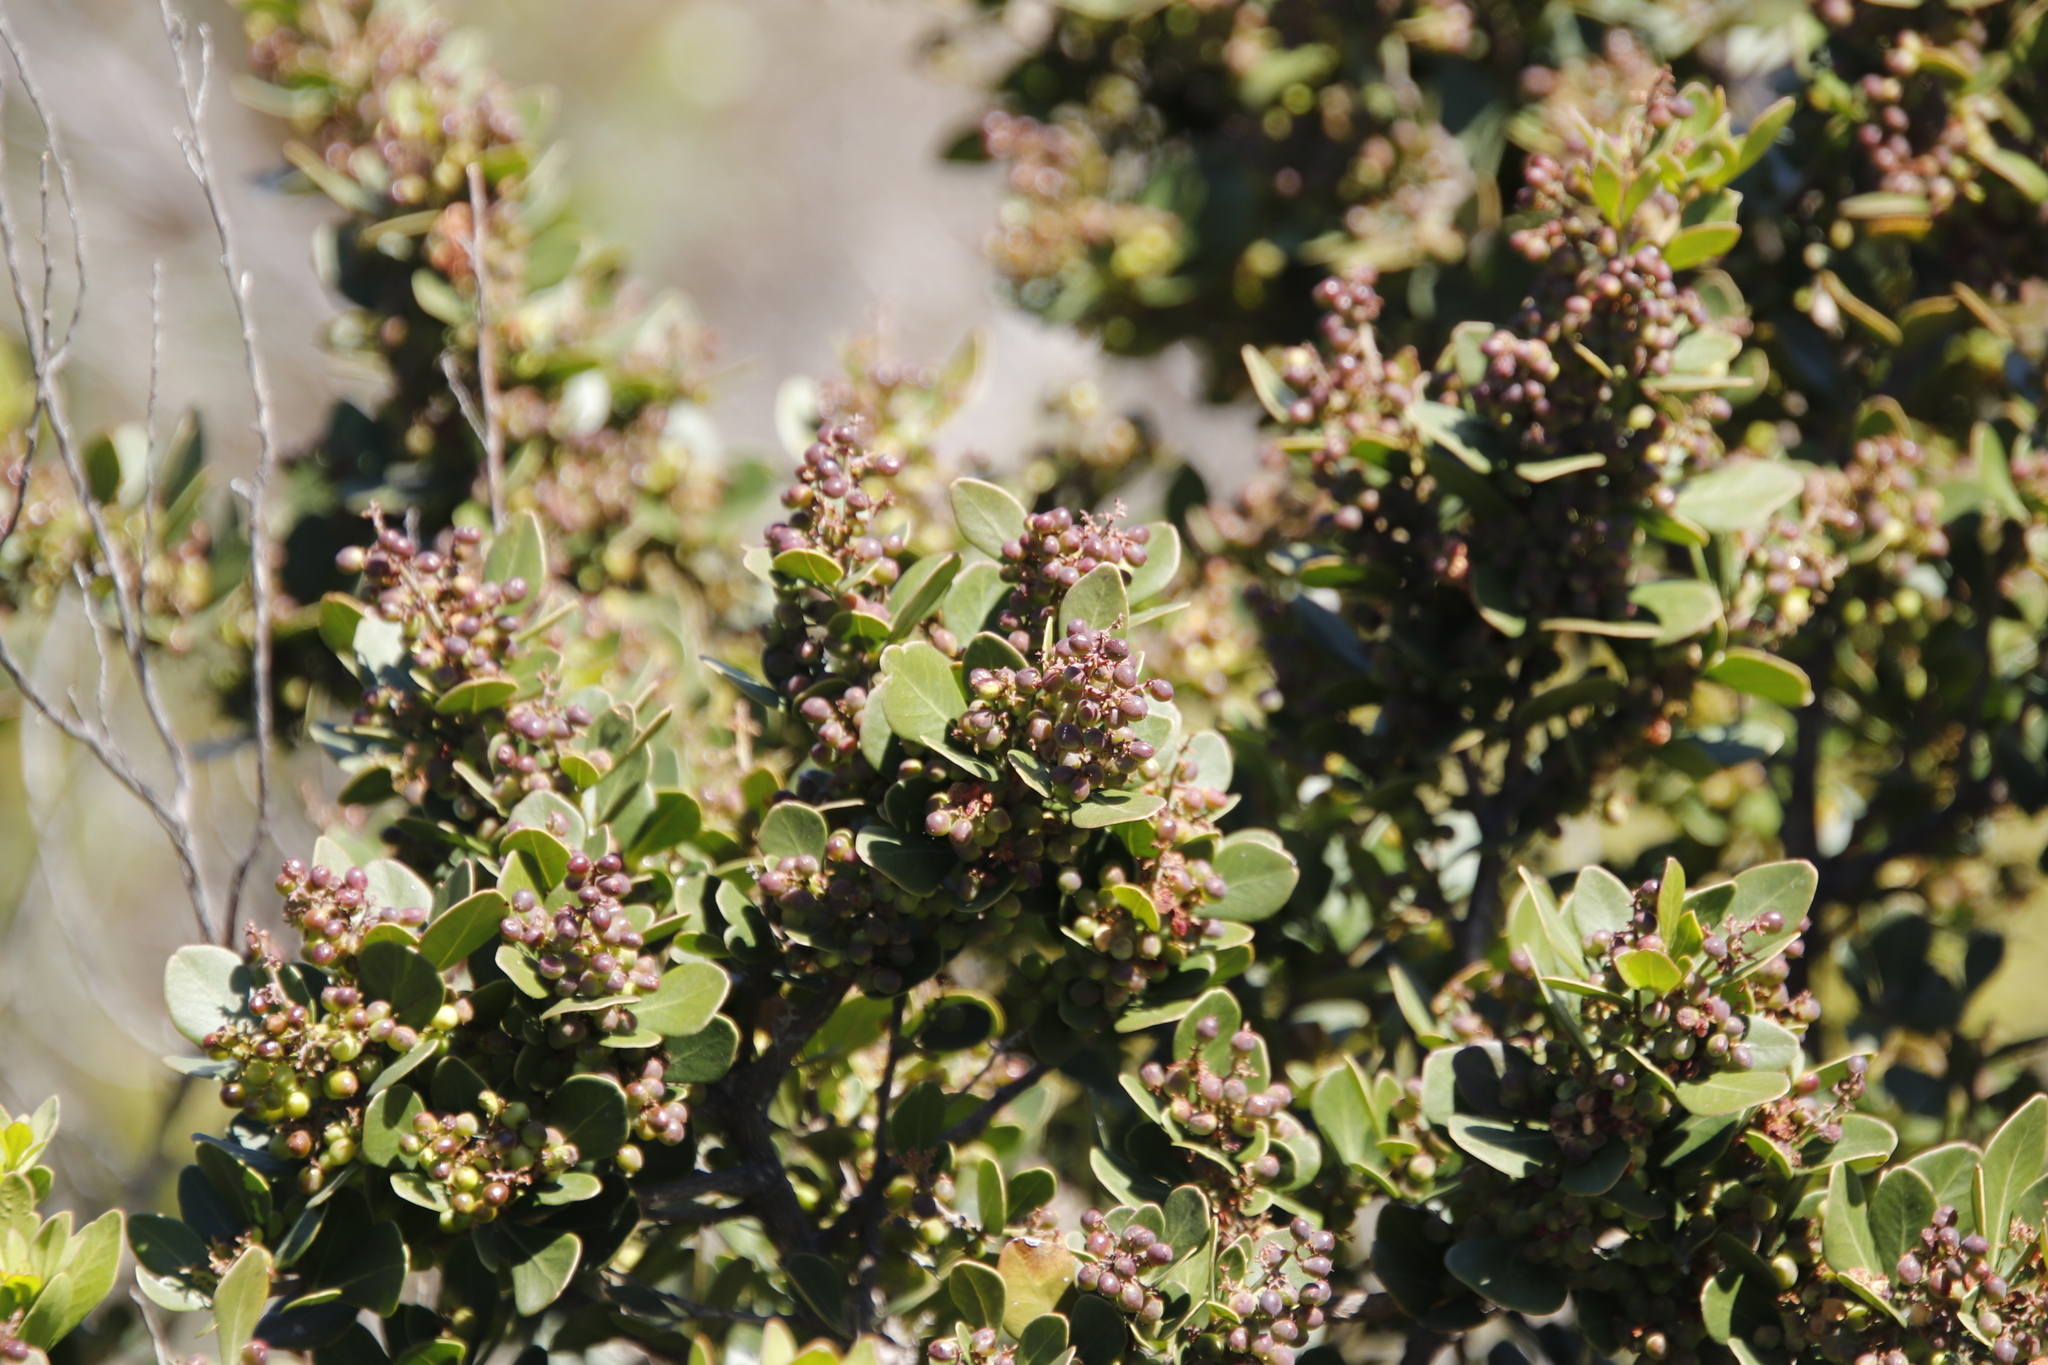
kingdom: Plantae
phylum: Tracheophyta
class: Magnoliopsida
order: Sapindales
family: Anacardiaceae
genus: Searsia
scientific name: Searsia lucida
